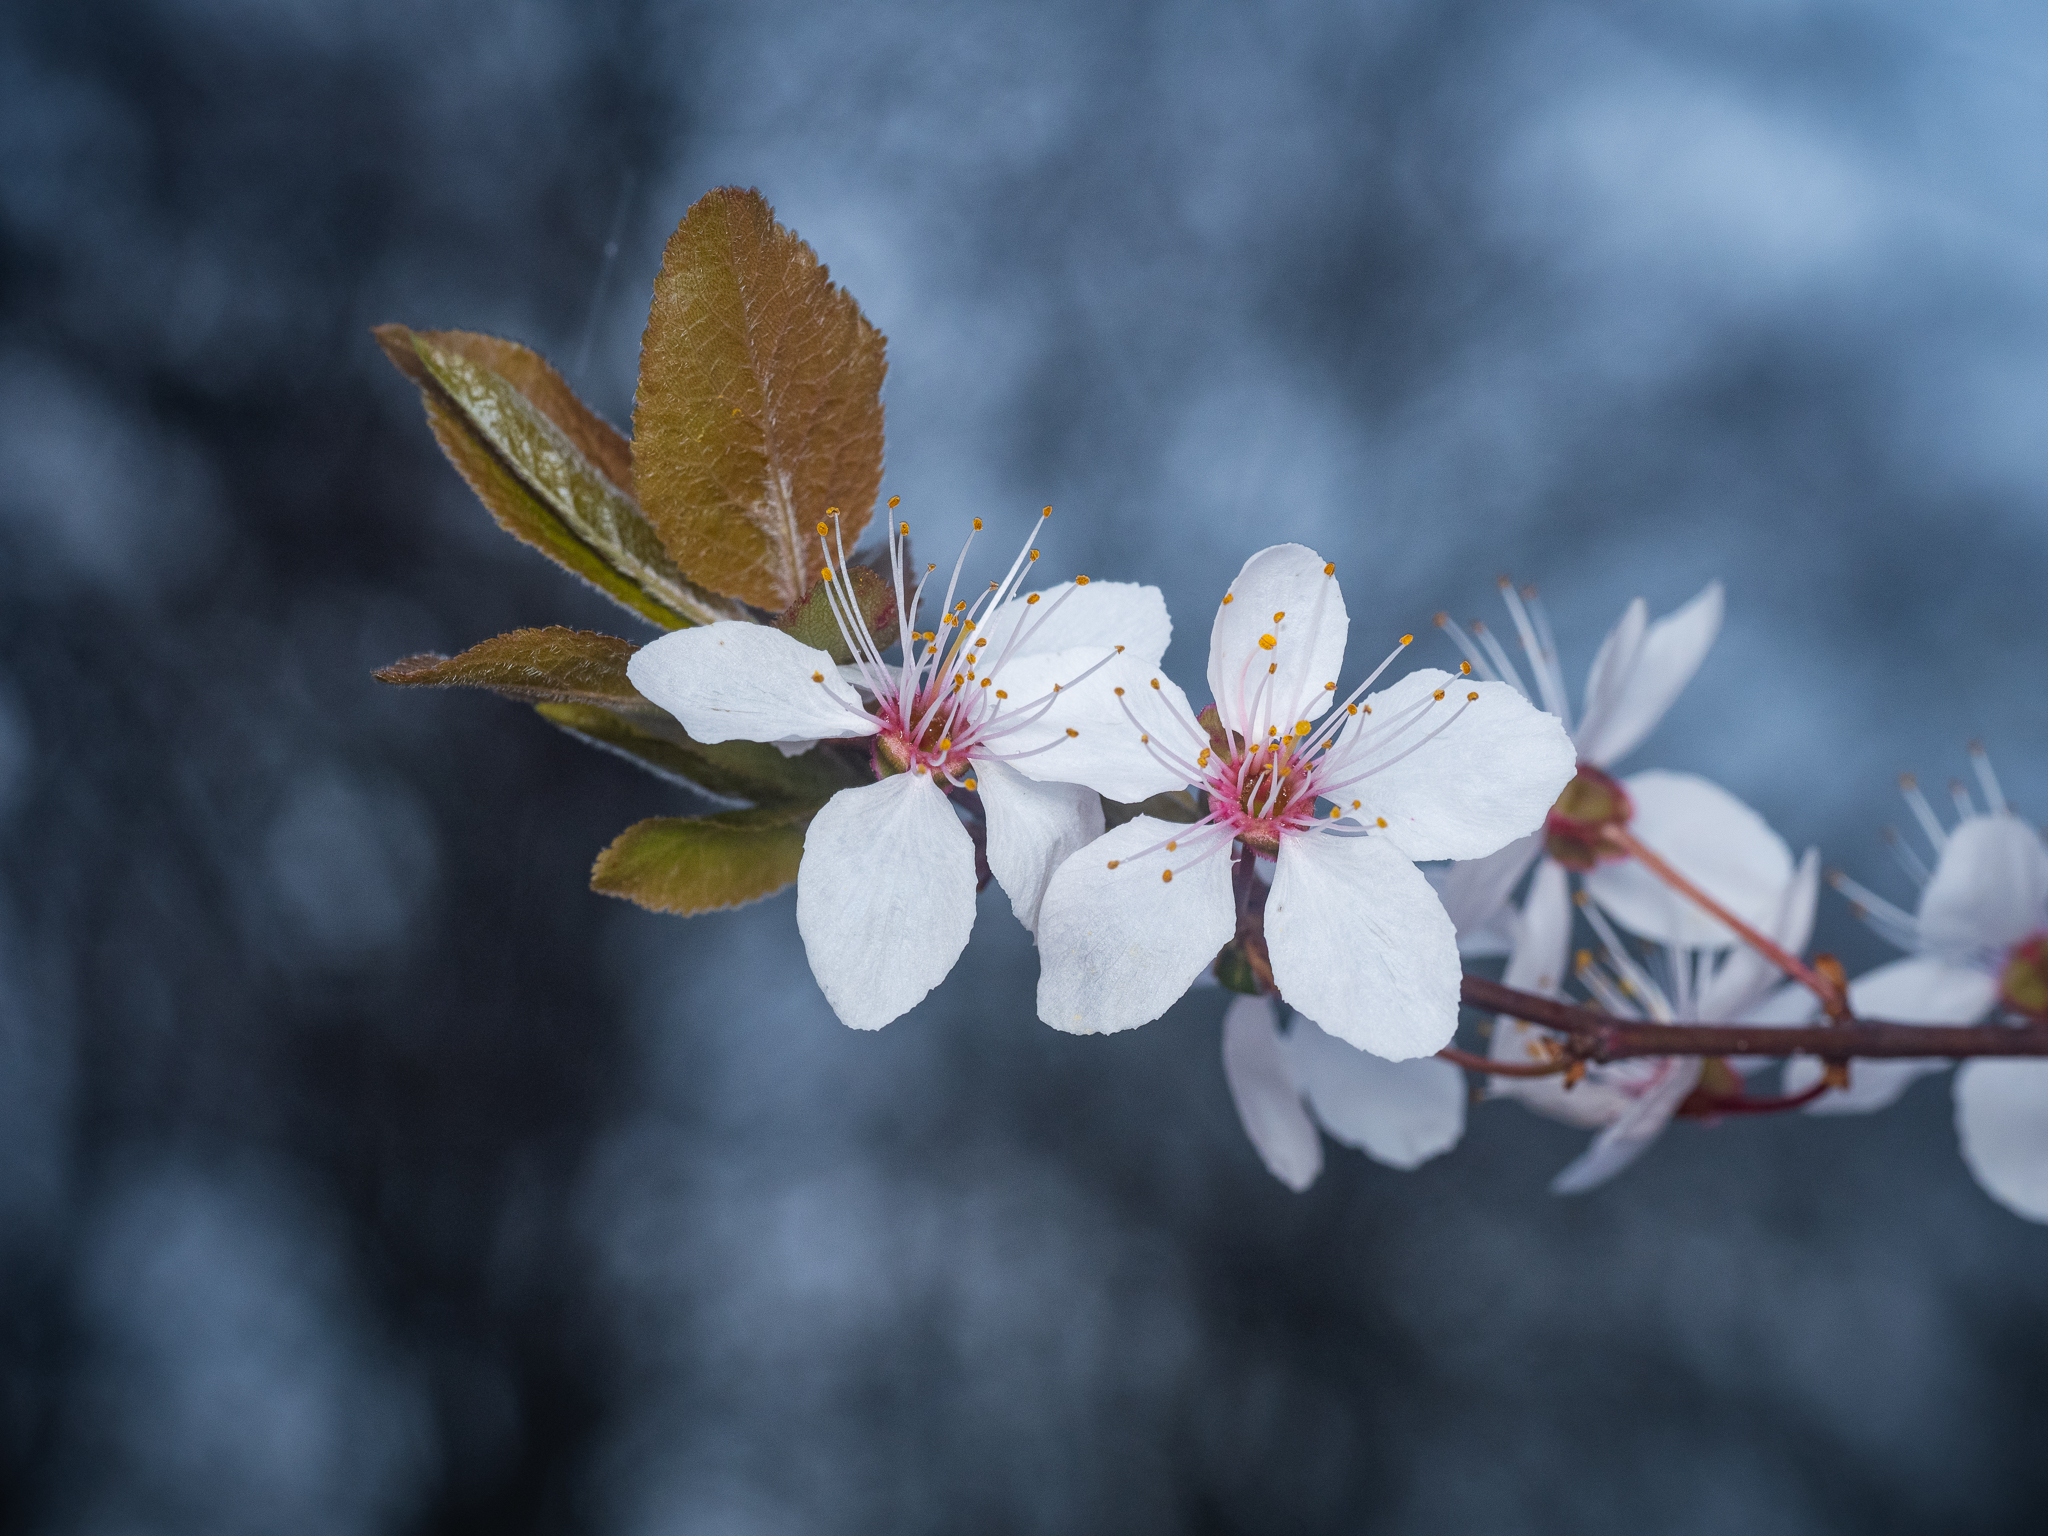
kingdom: Plantae
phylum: Tracheophyta
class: Magnoliopsida
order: Rosales
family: Rosaceae
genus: Prunus
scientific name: Prunus cerasifera
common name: Cherry plum
